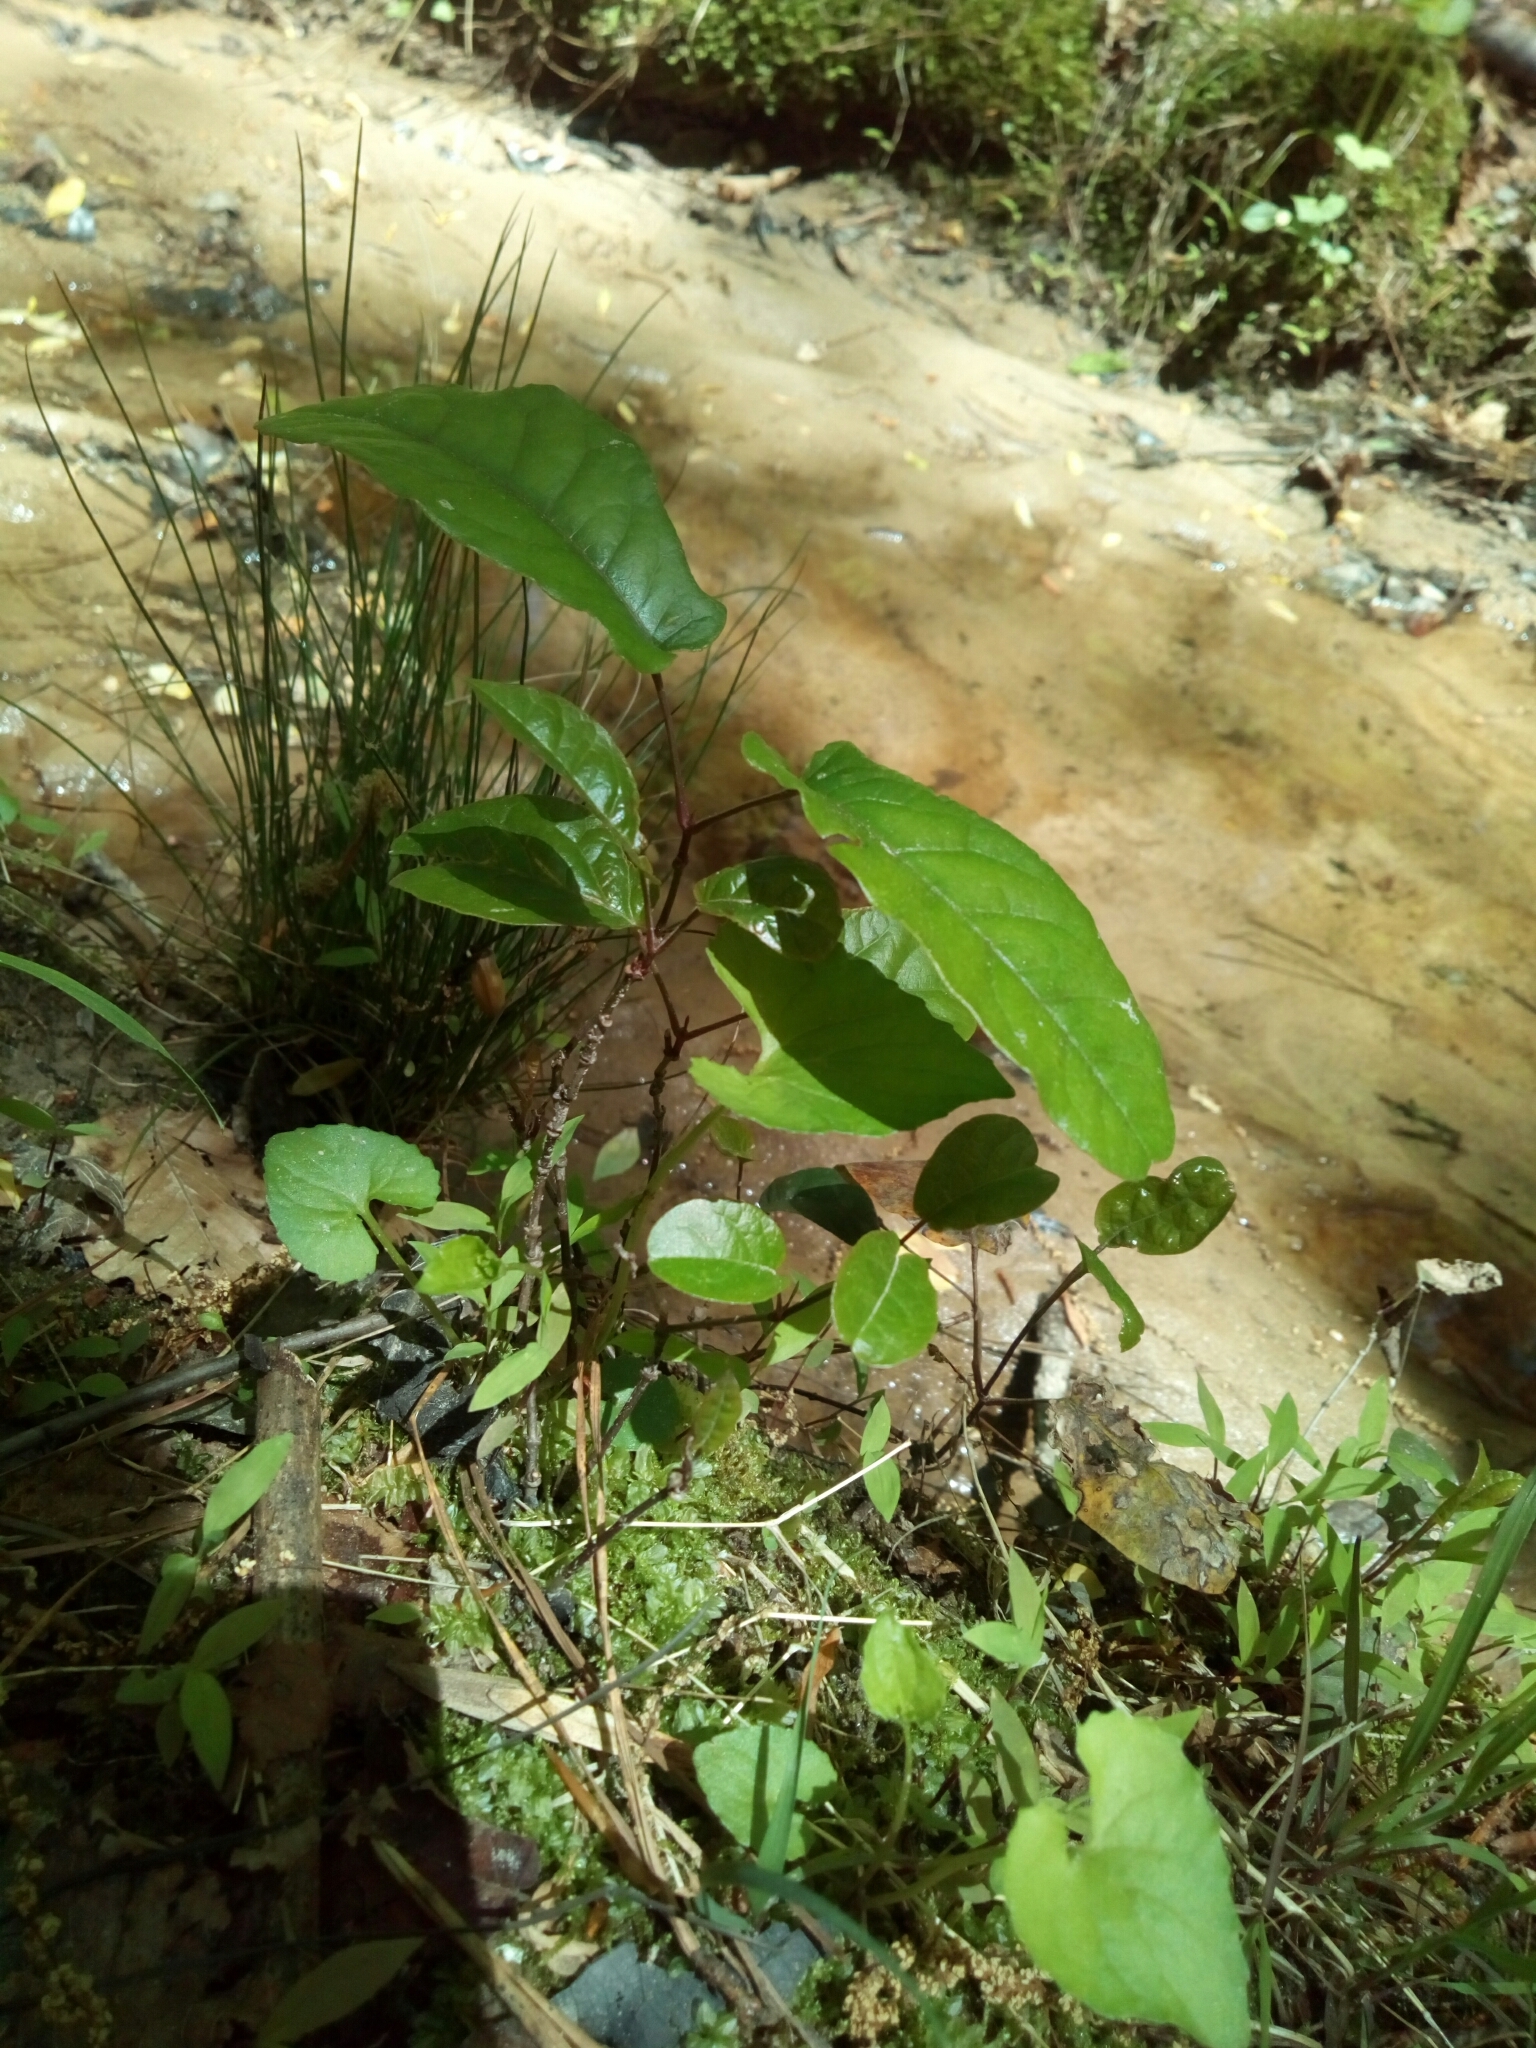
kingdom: Plantae
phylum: Tracheophyta
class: Magnoliopsida
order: Lamiales
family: Bignoniaceae
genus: Bignonia
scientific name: Bignonia capreolata
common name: Crossvine
